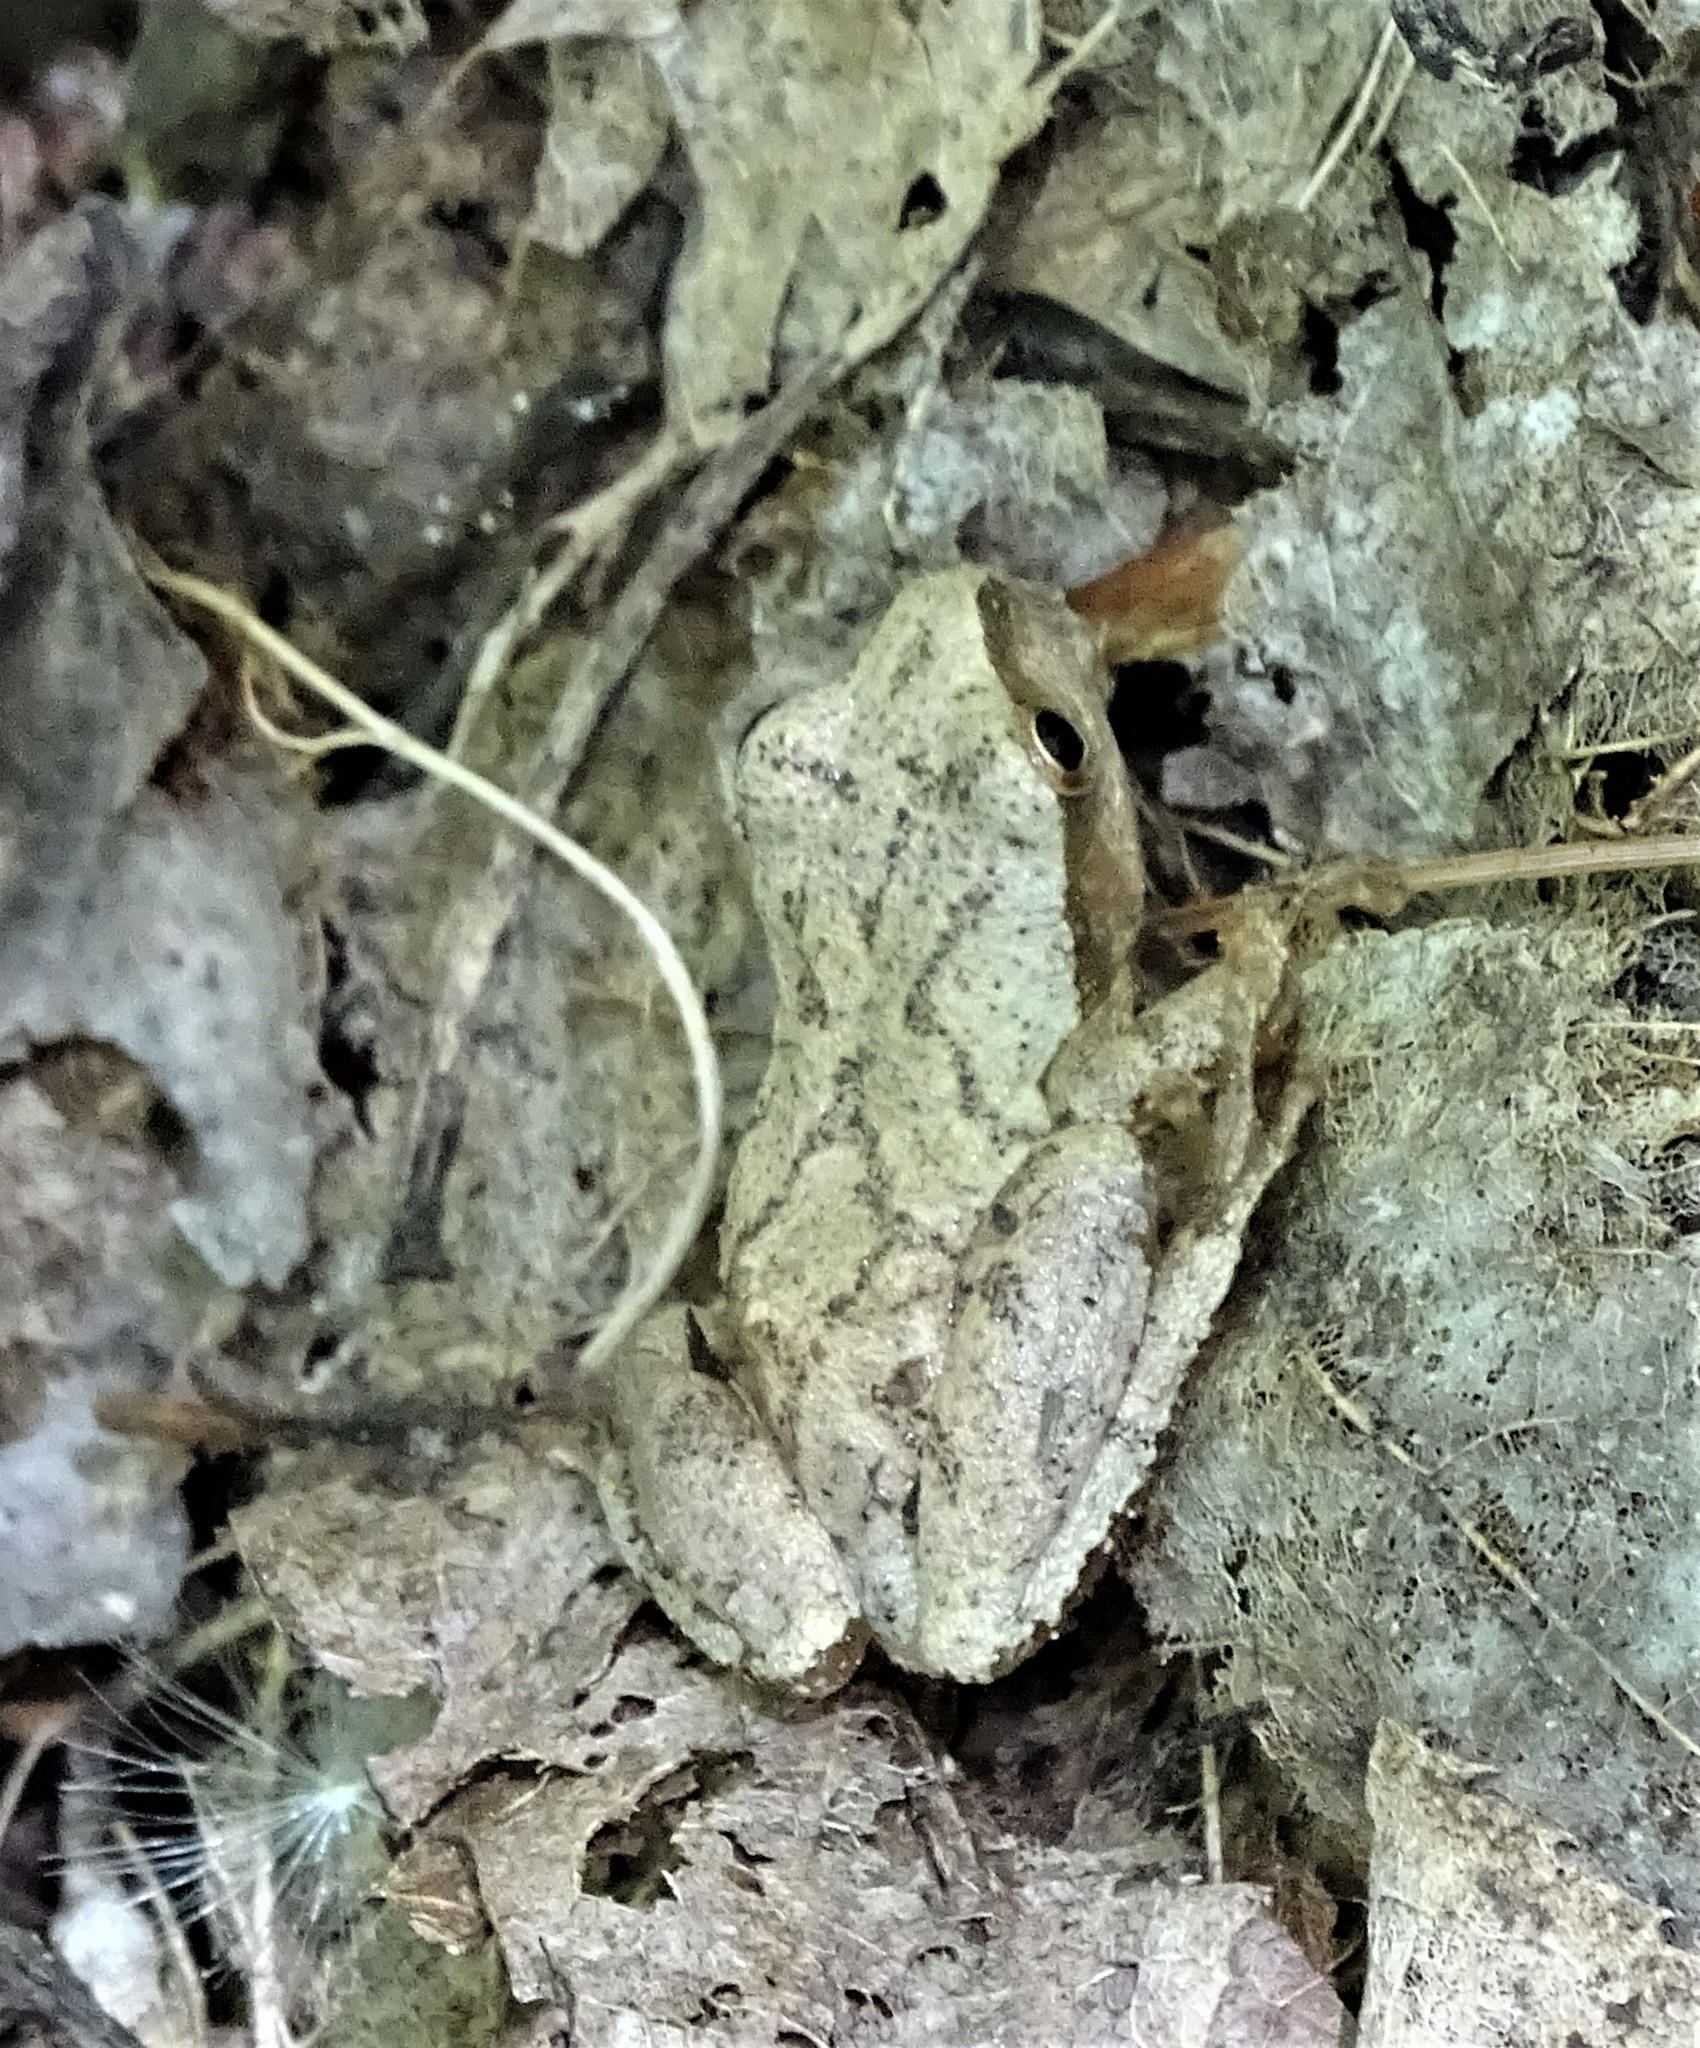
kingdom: Animalia
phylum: Chordata
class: Amphibia
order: Anura
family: Hylidae
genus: Pseudacris
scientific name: Pseudacris crucifer
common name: Spring peeper
